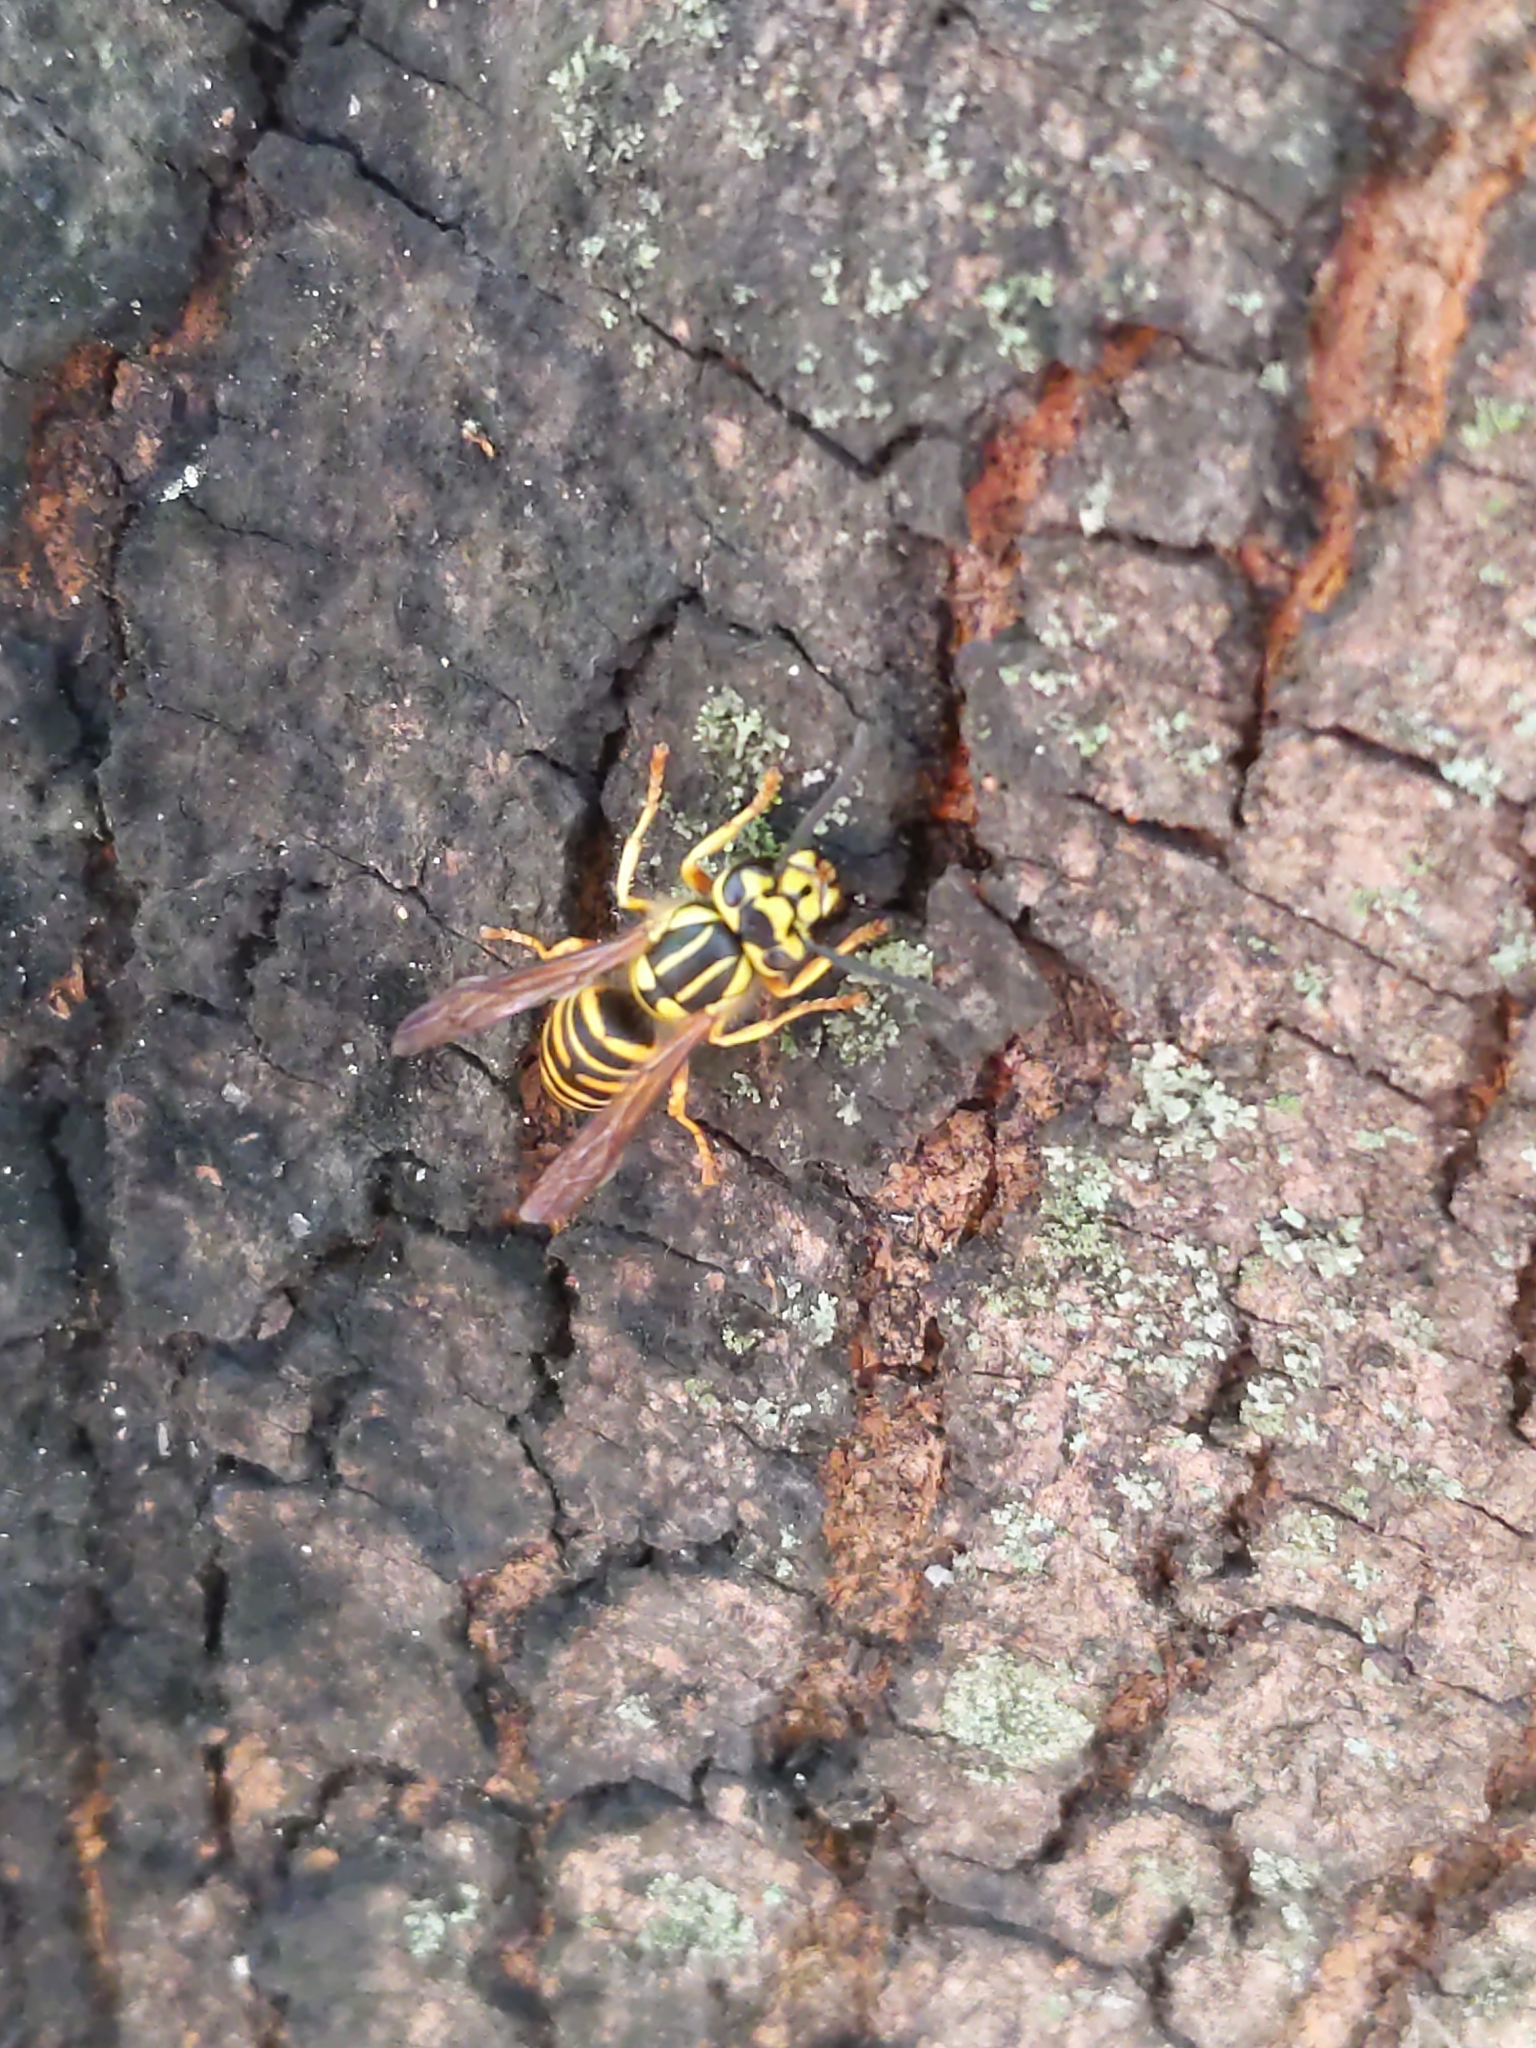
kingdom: Animalia
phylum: Arthropoda
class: Insecta
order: Hymenoptera
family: Vespidae
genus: Vespula
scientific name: Vespula squamosa
